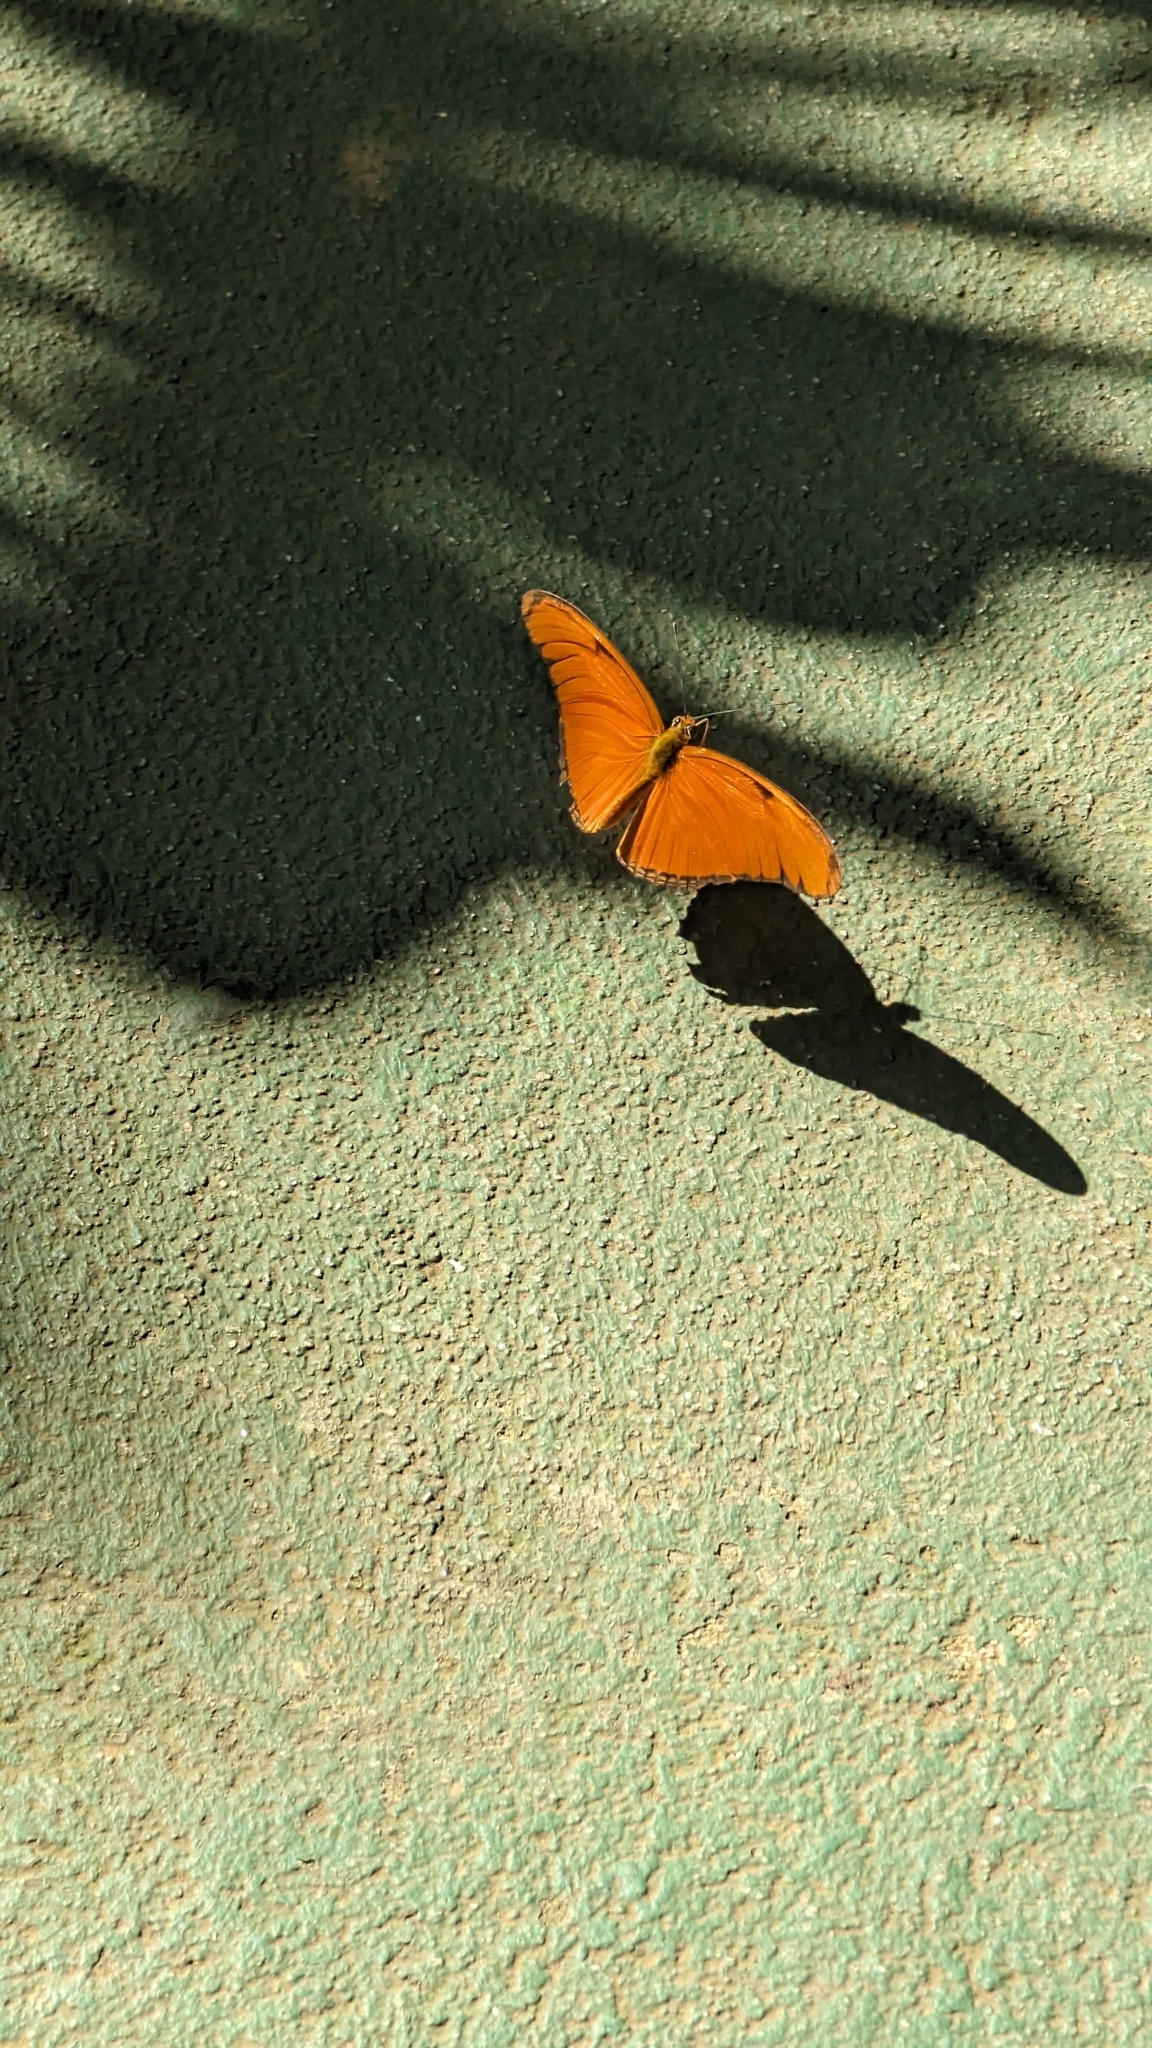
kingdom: Animalia
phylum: Arthropoda
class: Insecta
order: Lepidoptera
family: Nymphalidae
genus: Dryas
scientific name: Dryas iulia
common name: Flambeau
